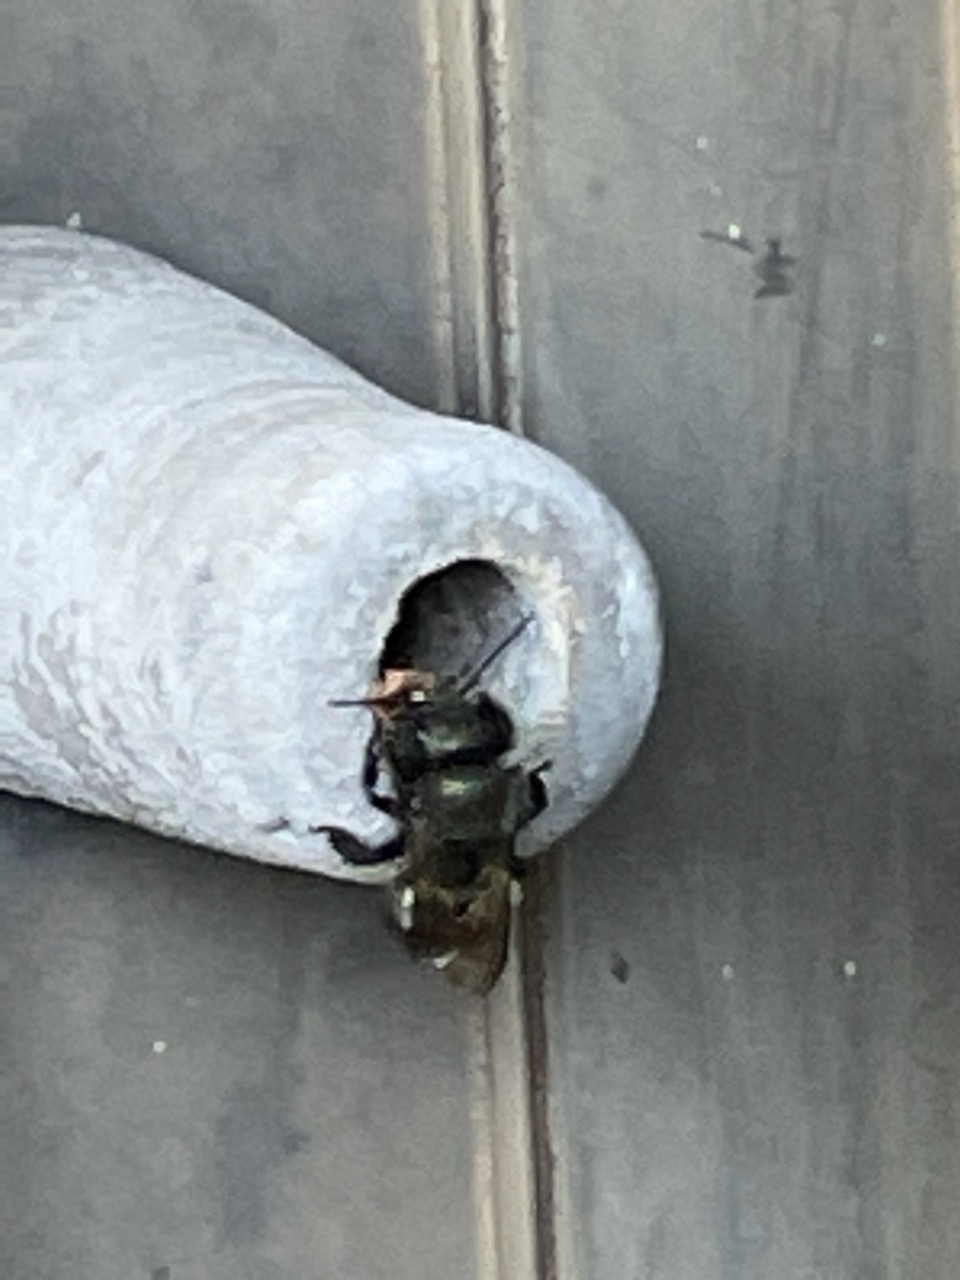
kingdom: Animalia
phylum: Arthropoda
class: Insecta
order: Hymenoptera
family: Megachilidae
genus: Osmia
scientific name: Osmia lignaria
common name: Blue orchard bee
